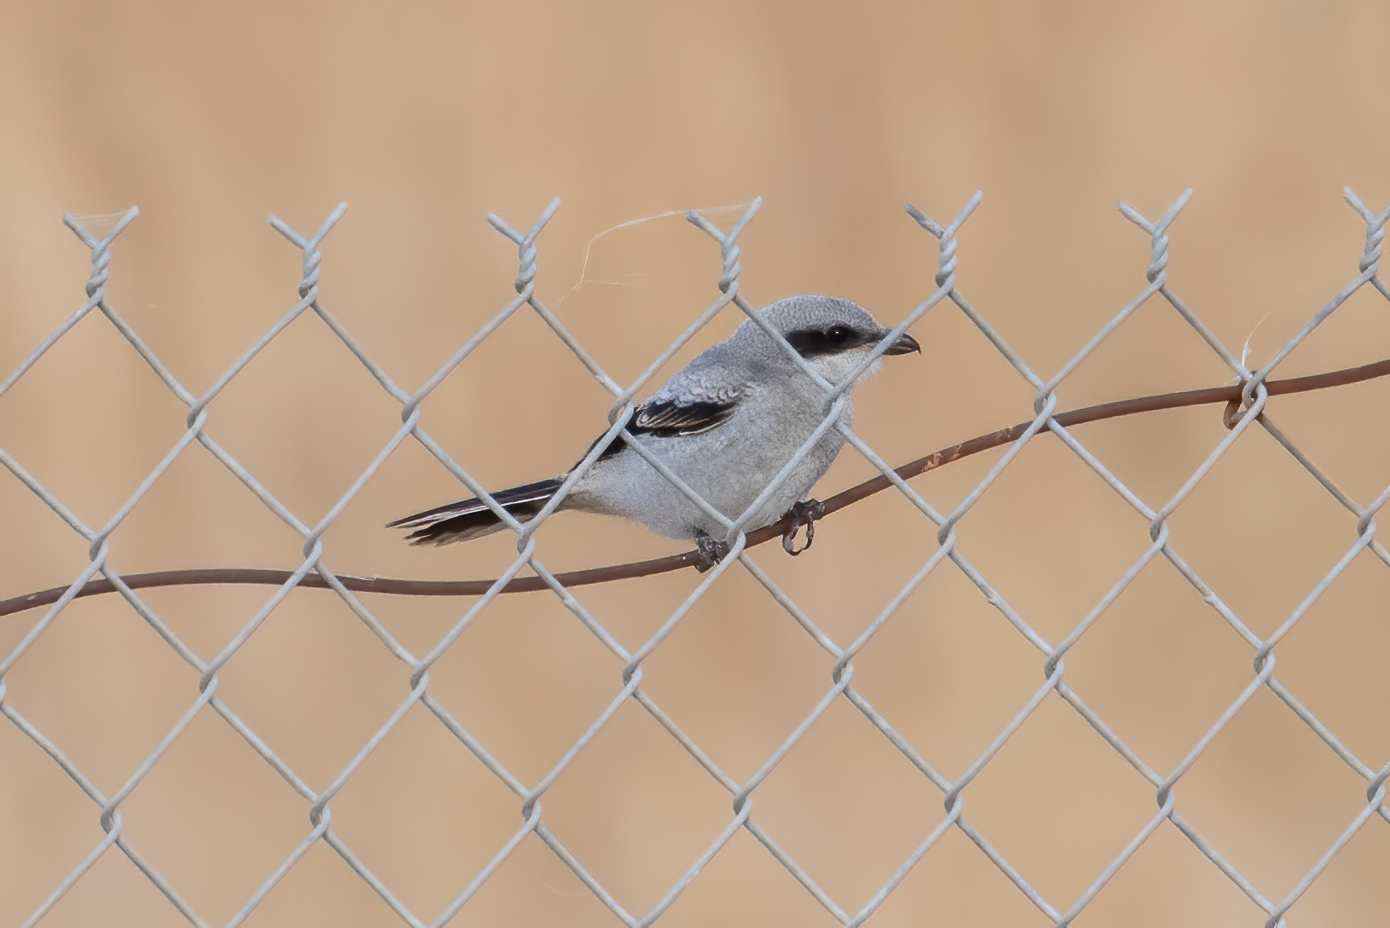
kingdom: Animalia
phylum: Chordata
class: Aves
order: Passeriformes
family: Laniidae
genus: Lanius
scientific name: Lanius ludovicianus
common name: Loggerhead shrike
